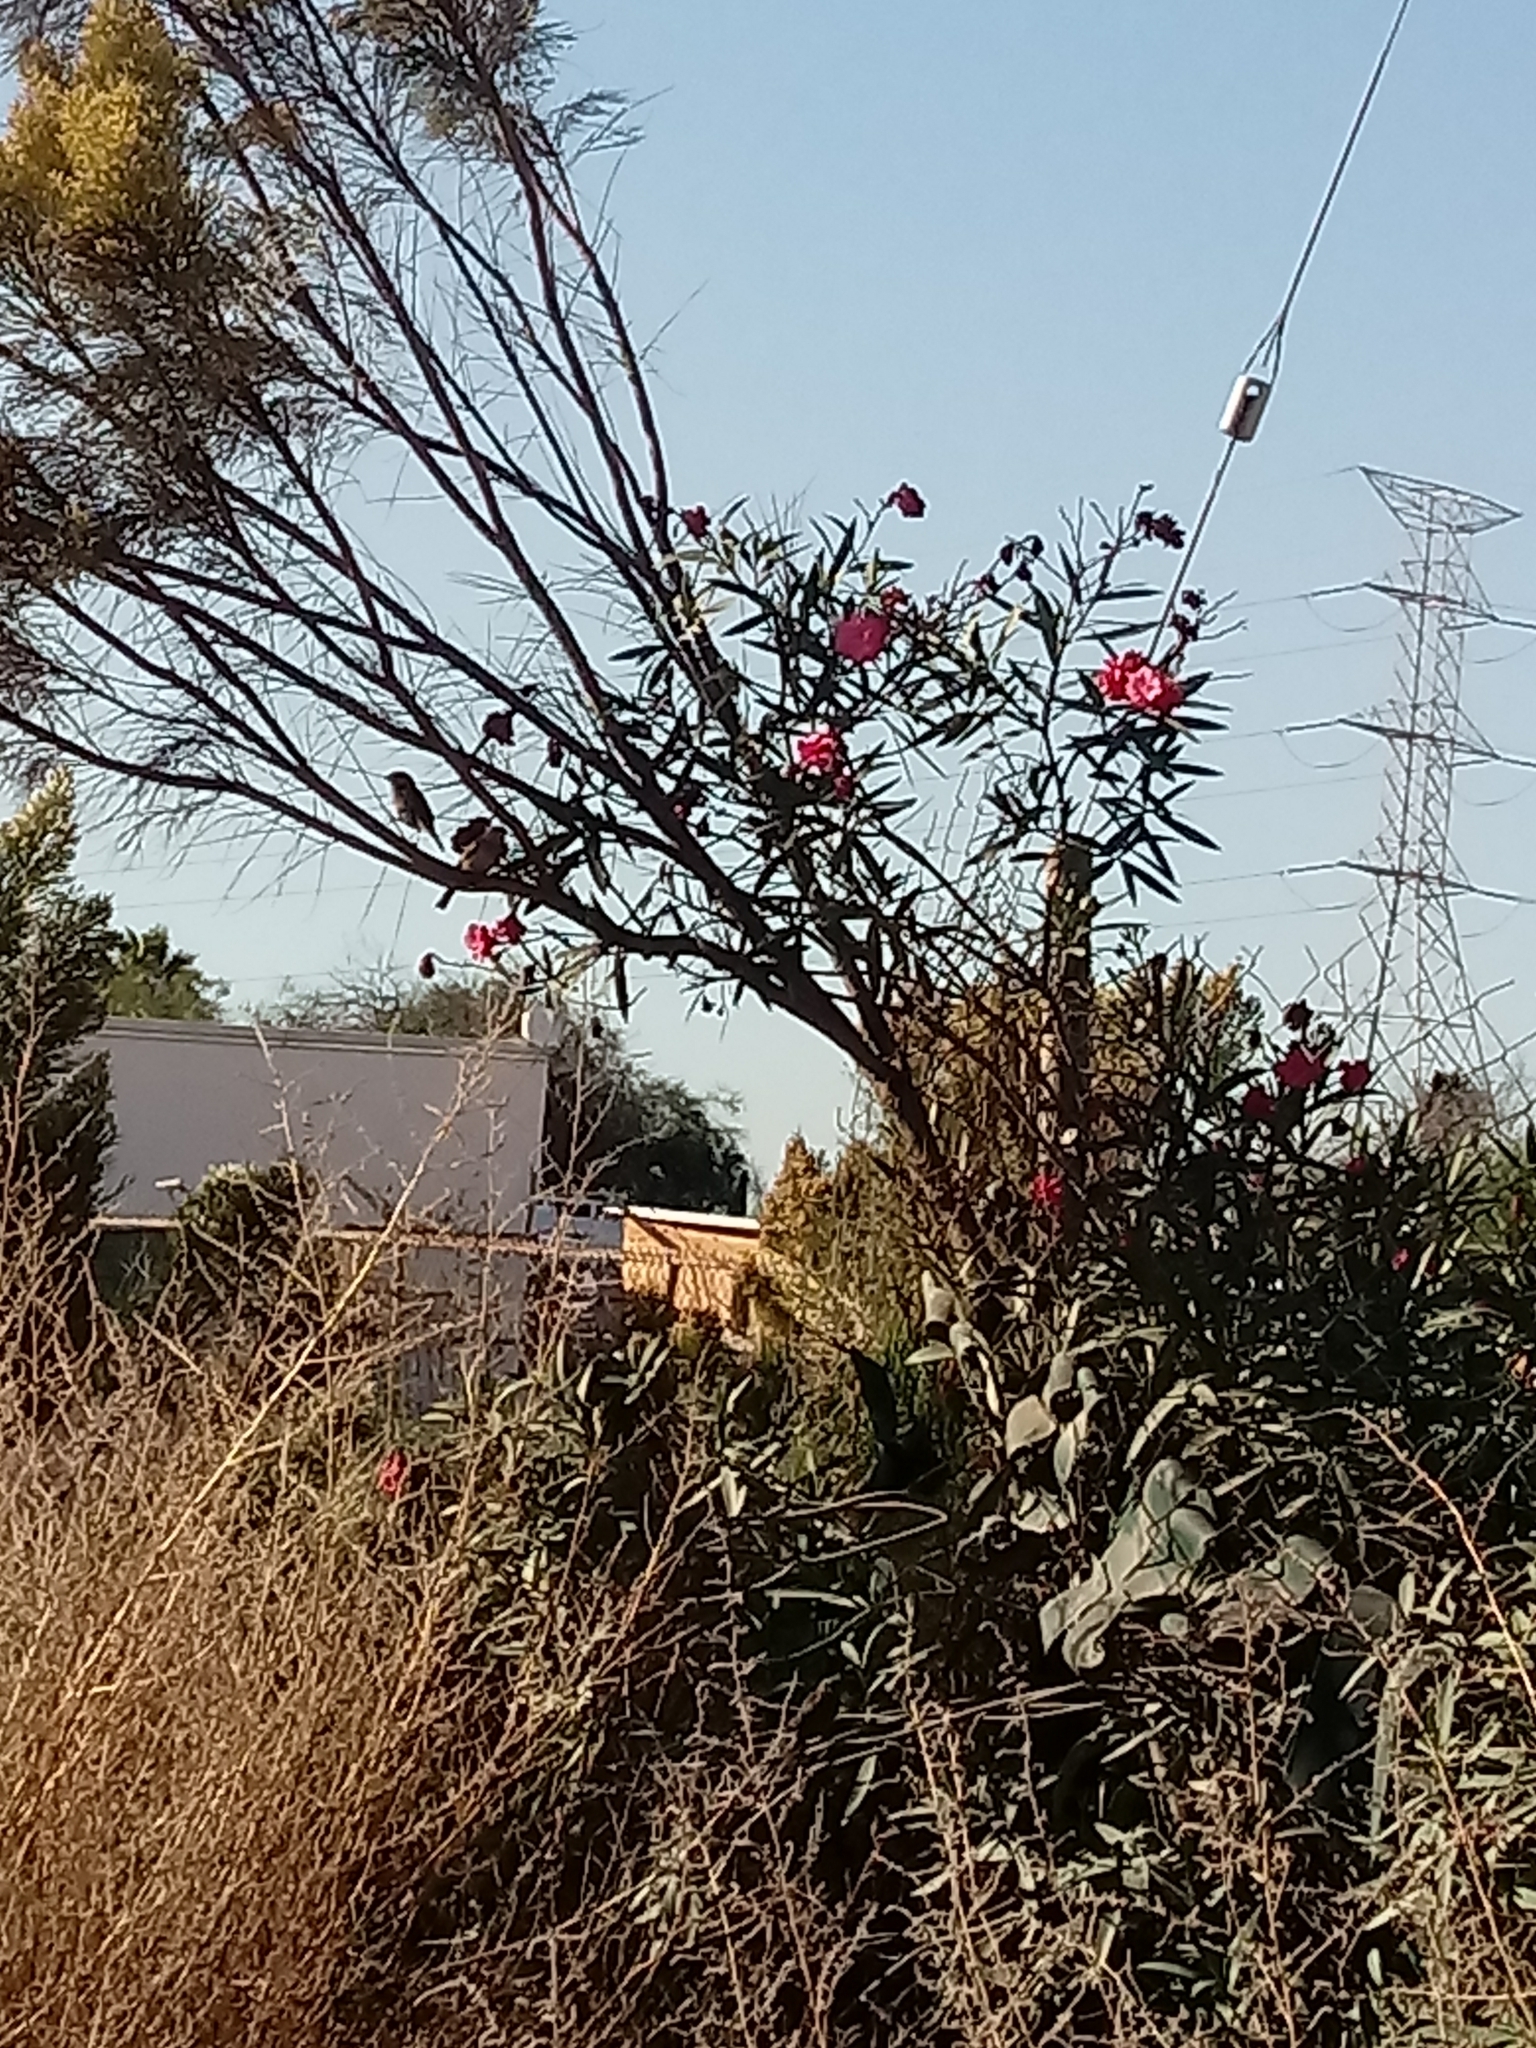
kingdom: Animalia
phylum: Chordata
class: Aves
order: Passeriformes
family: Passeridae
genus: Passer
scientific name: Passer domesticus
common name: House sparrow
